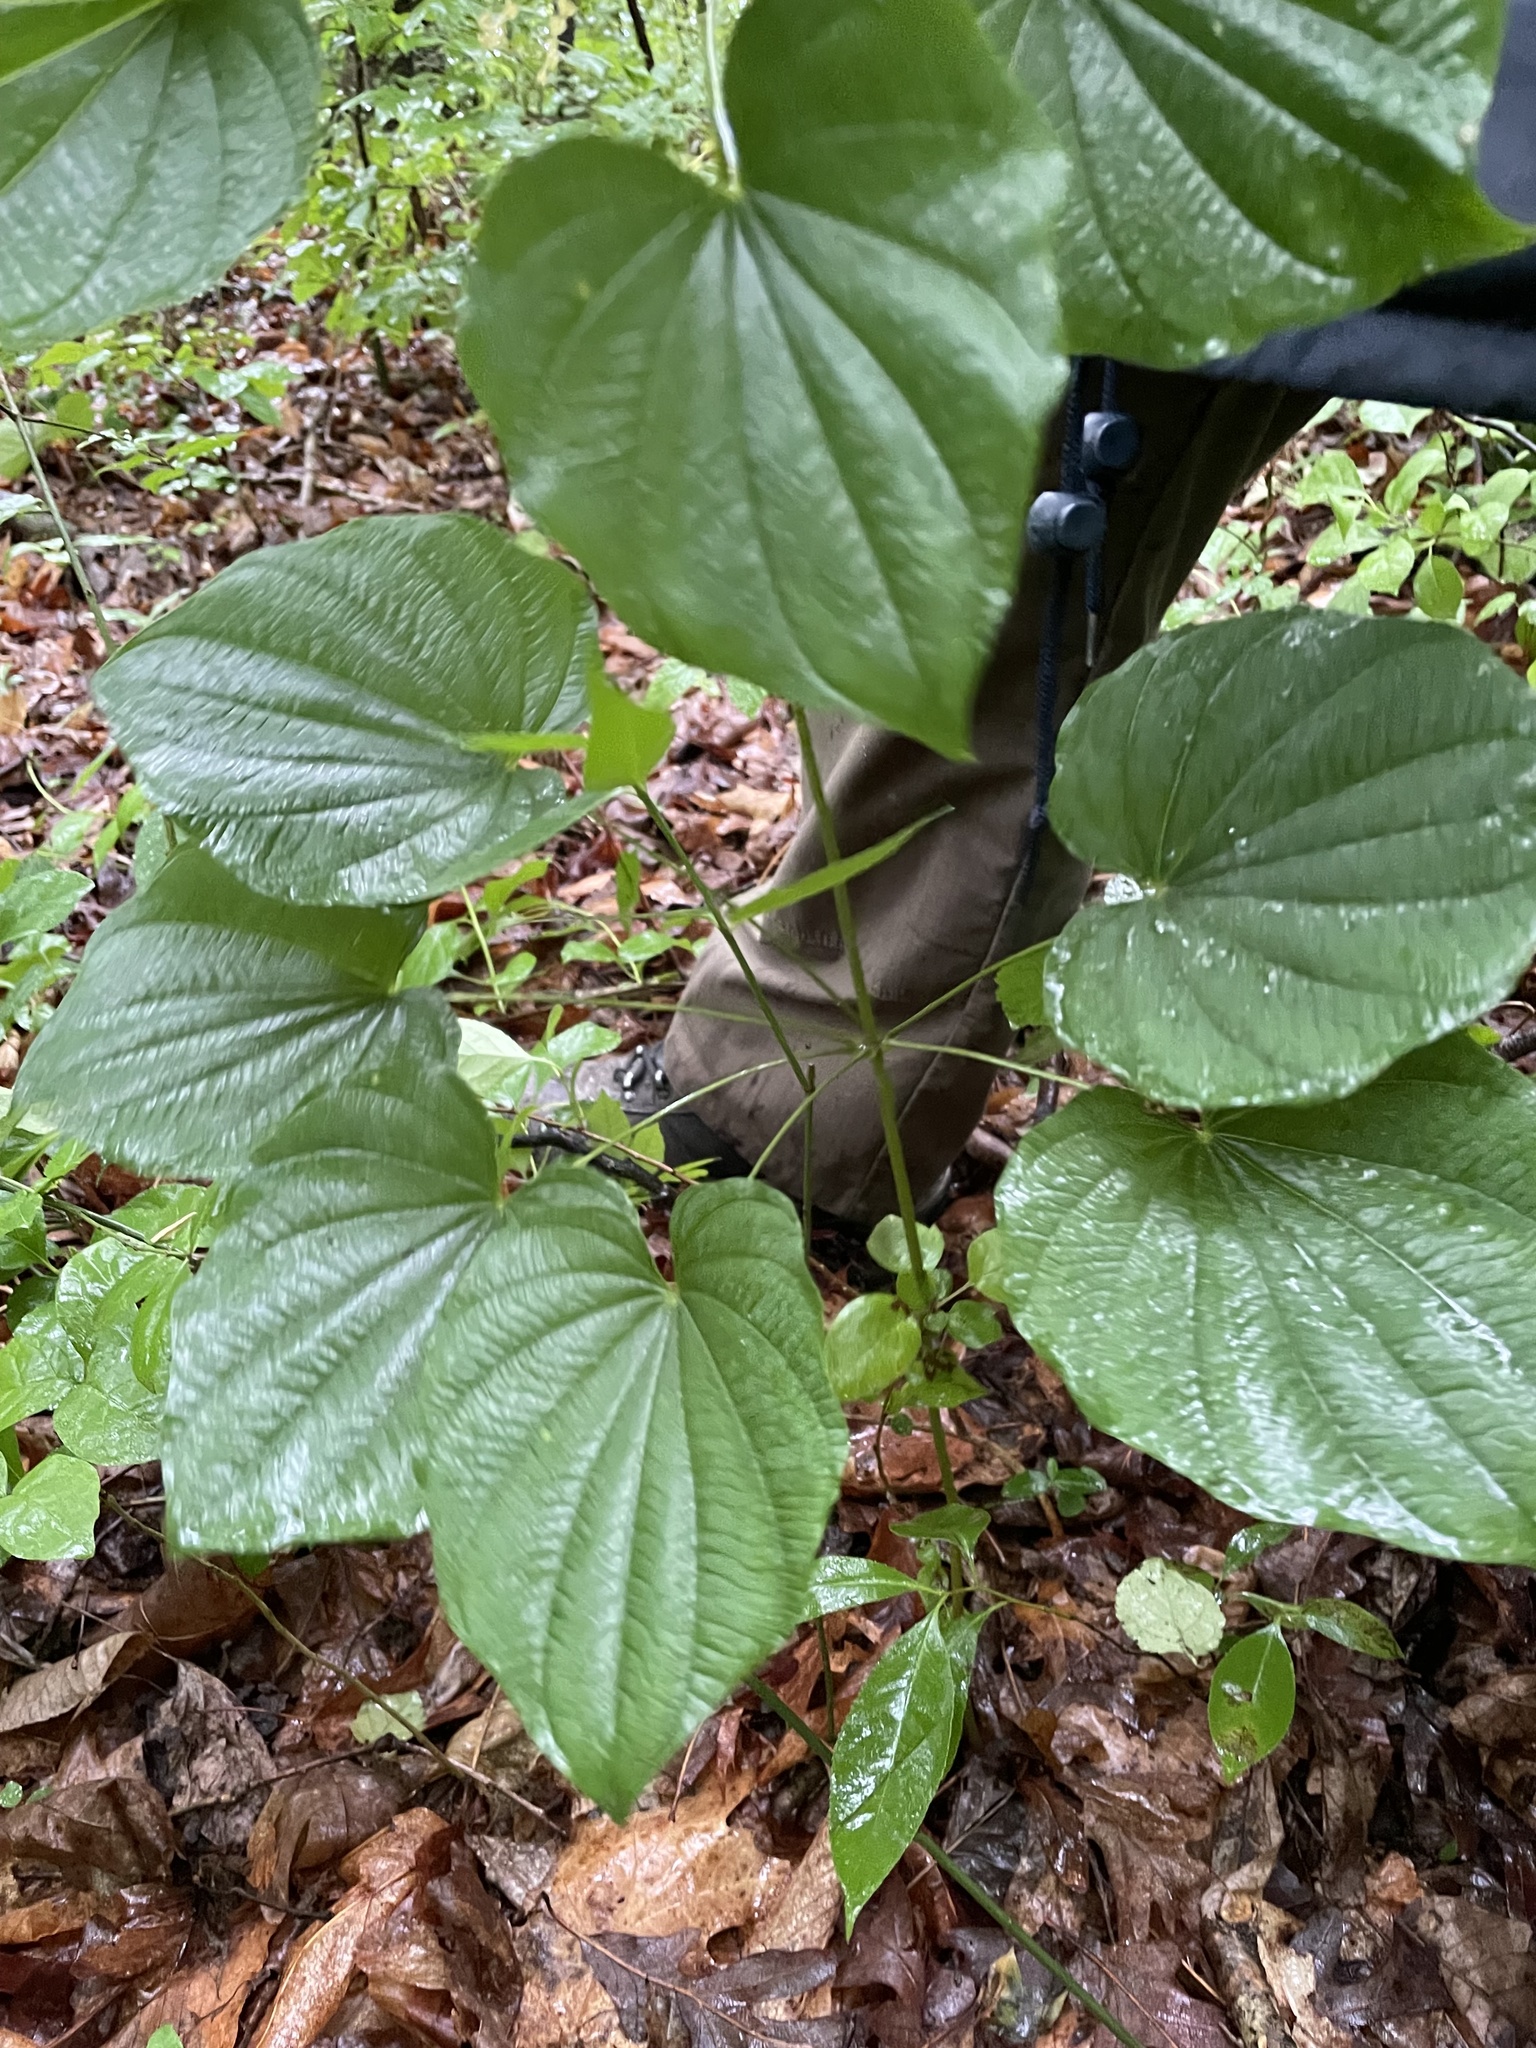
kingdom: Plantae
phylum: Tracheophyta
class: Liliopsida
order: Dioscoreales
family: Dioscoreaceae
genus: Dioscorea
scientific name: Dioscorea villosa
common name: Wild yam
